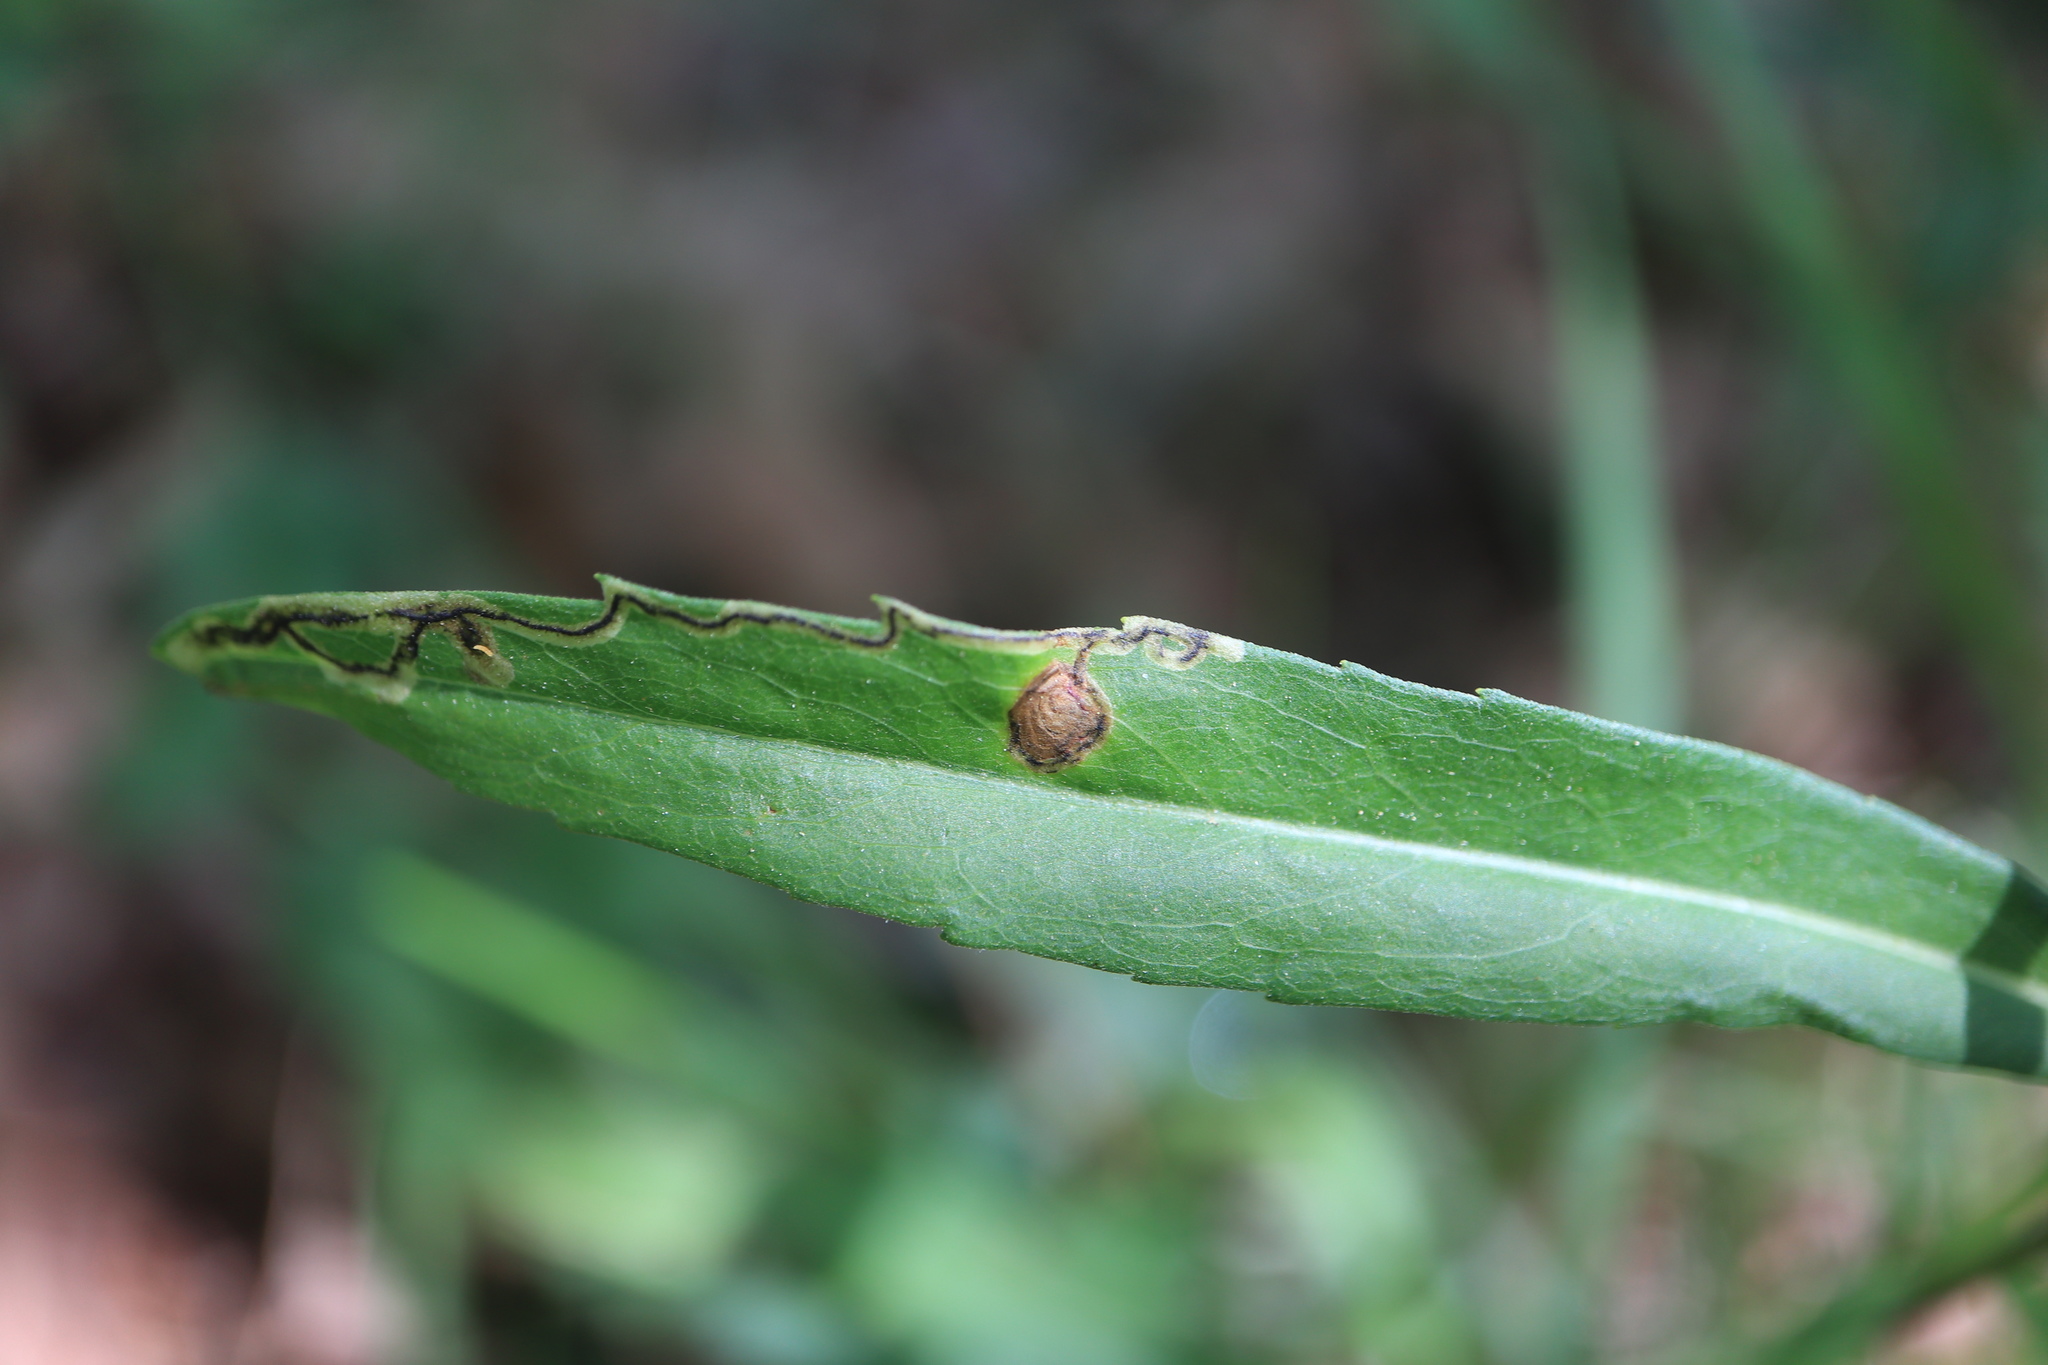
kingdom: Animalia
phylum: Arthropoda
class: Insecta
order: Diptera
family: Agromyzidae
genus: Liriomyza
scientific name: Liriomyza eupatorii
